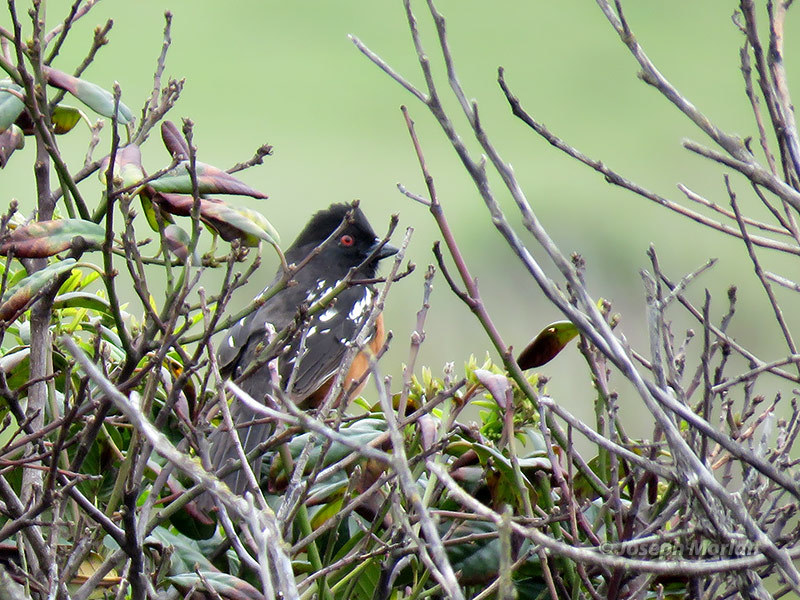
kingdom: Animalia
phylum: Chordata
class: Aves
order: Passeriformes
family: Passerellidae
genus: Pipilo
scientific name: Pipilo maculatus
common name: Spotted towhee
